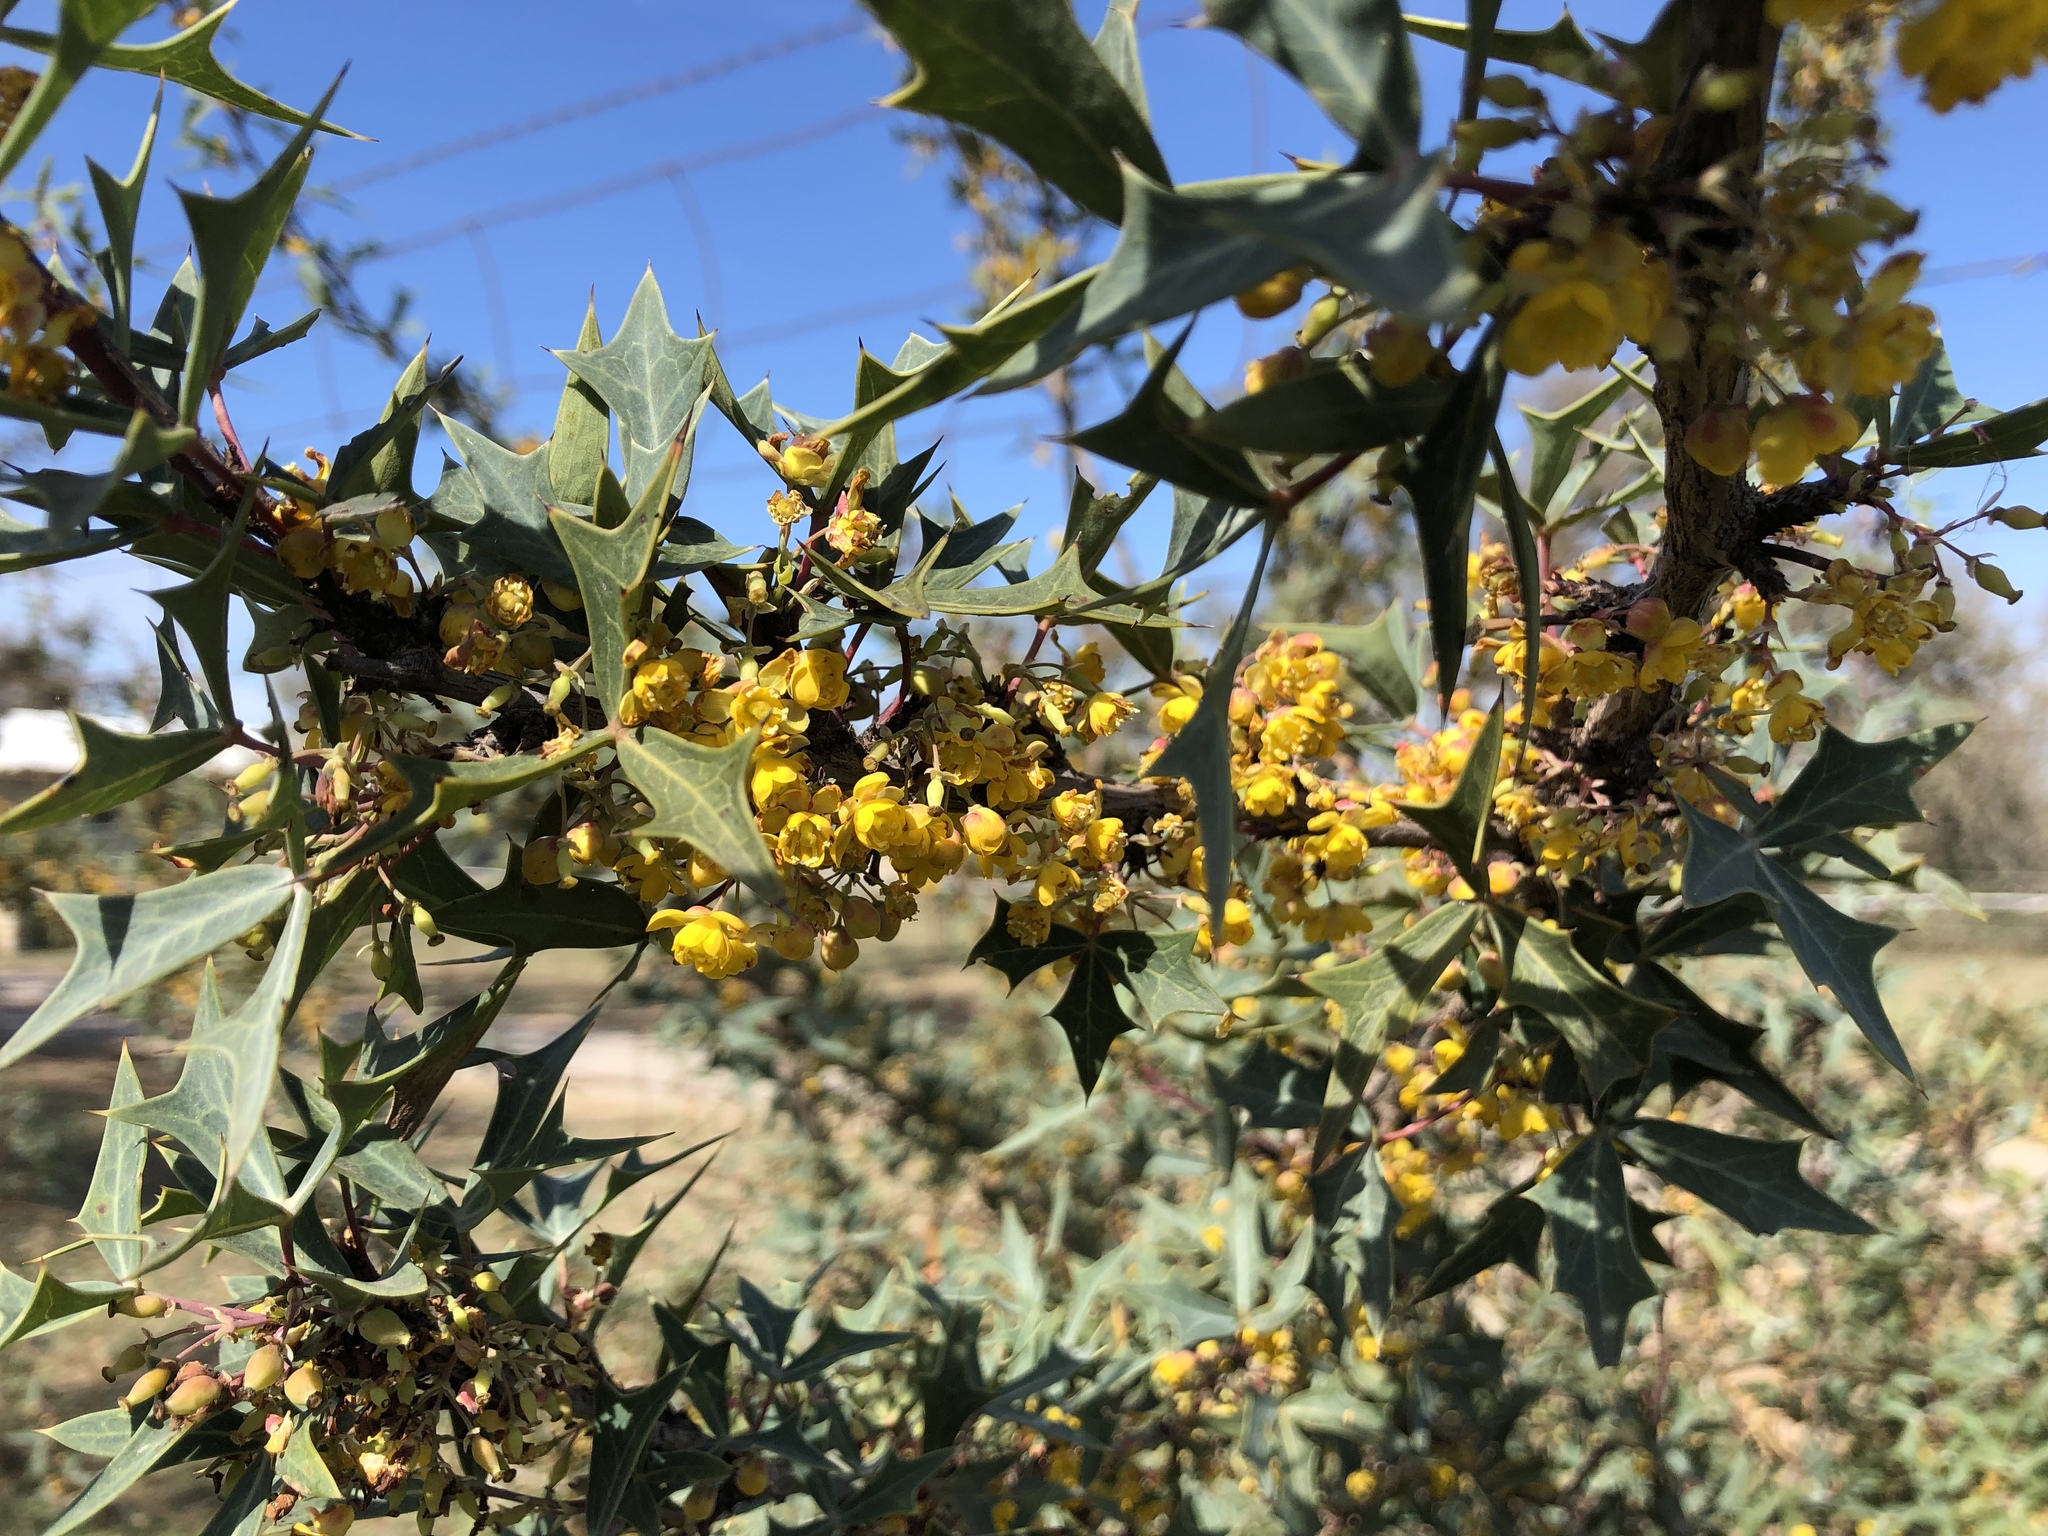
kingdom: Plantae
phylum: Tracheophyta
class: Magnoliopsida
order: Ranunculales
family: Berberidaceae
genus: Alloberberis
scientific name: Alloberberis trifoliolata
